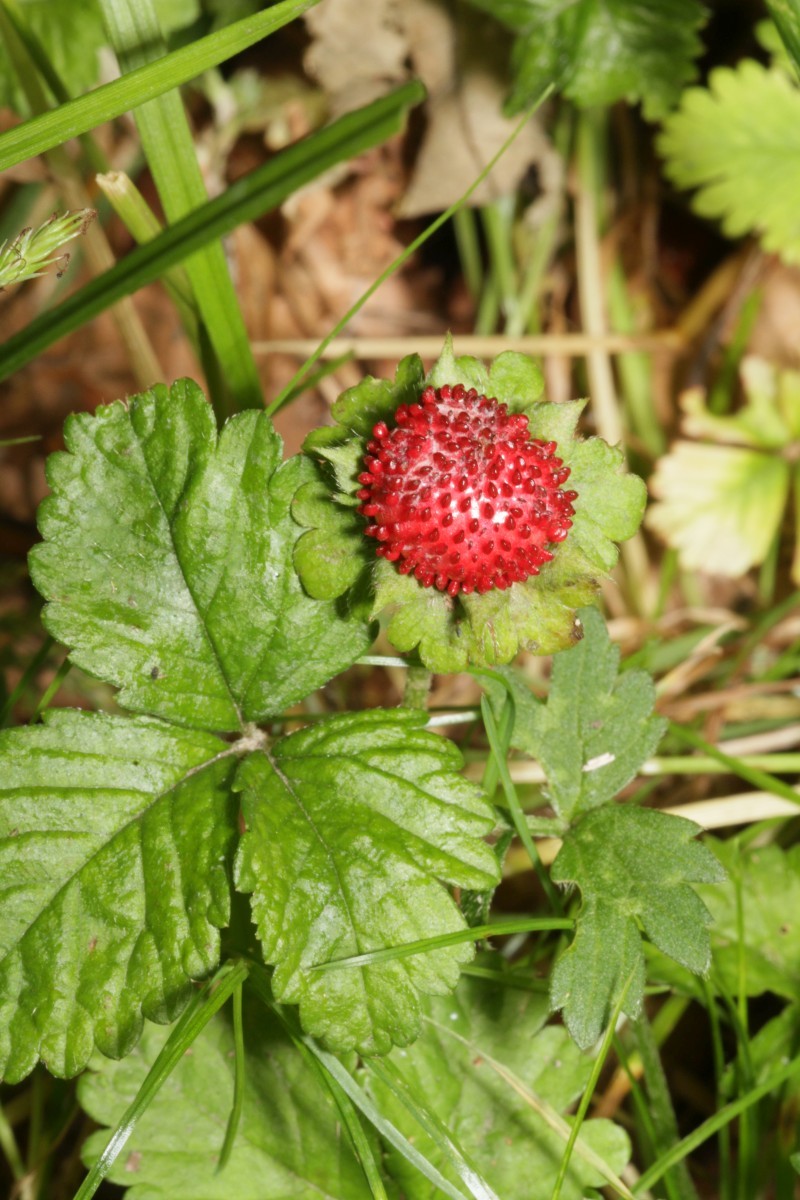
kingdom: Plantae
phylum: Tracheophyta
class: Magnoliopsida
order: Rosales
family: Rosaceae
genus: Potentilla
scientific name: Potentilla indica
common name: Yellow-flowered strawberry
